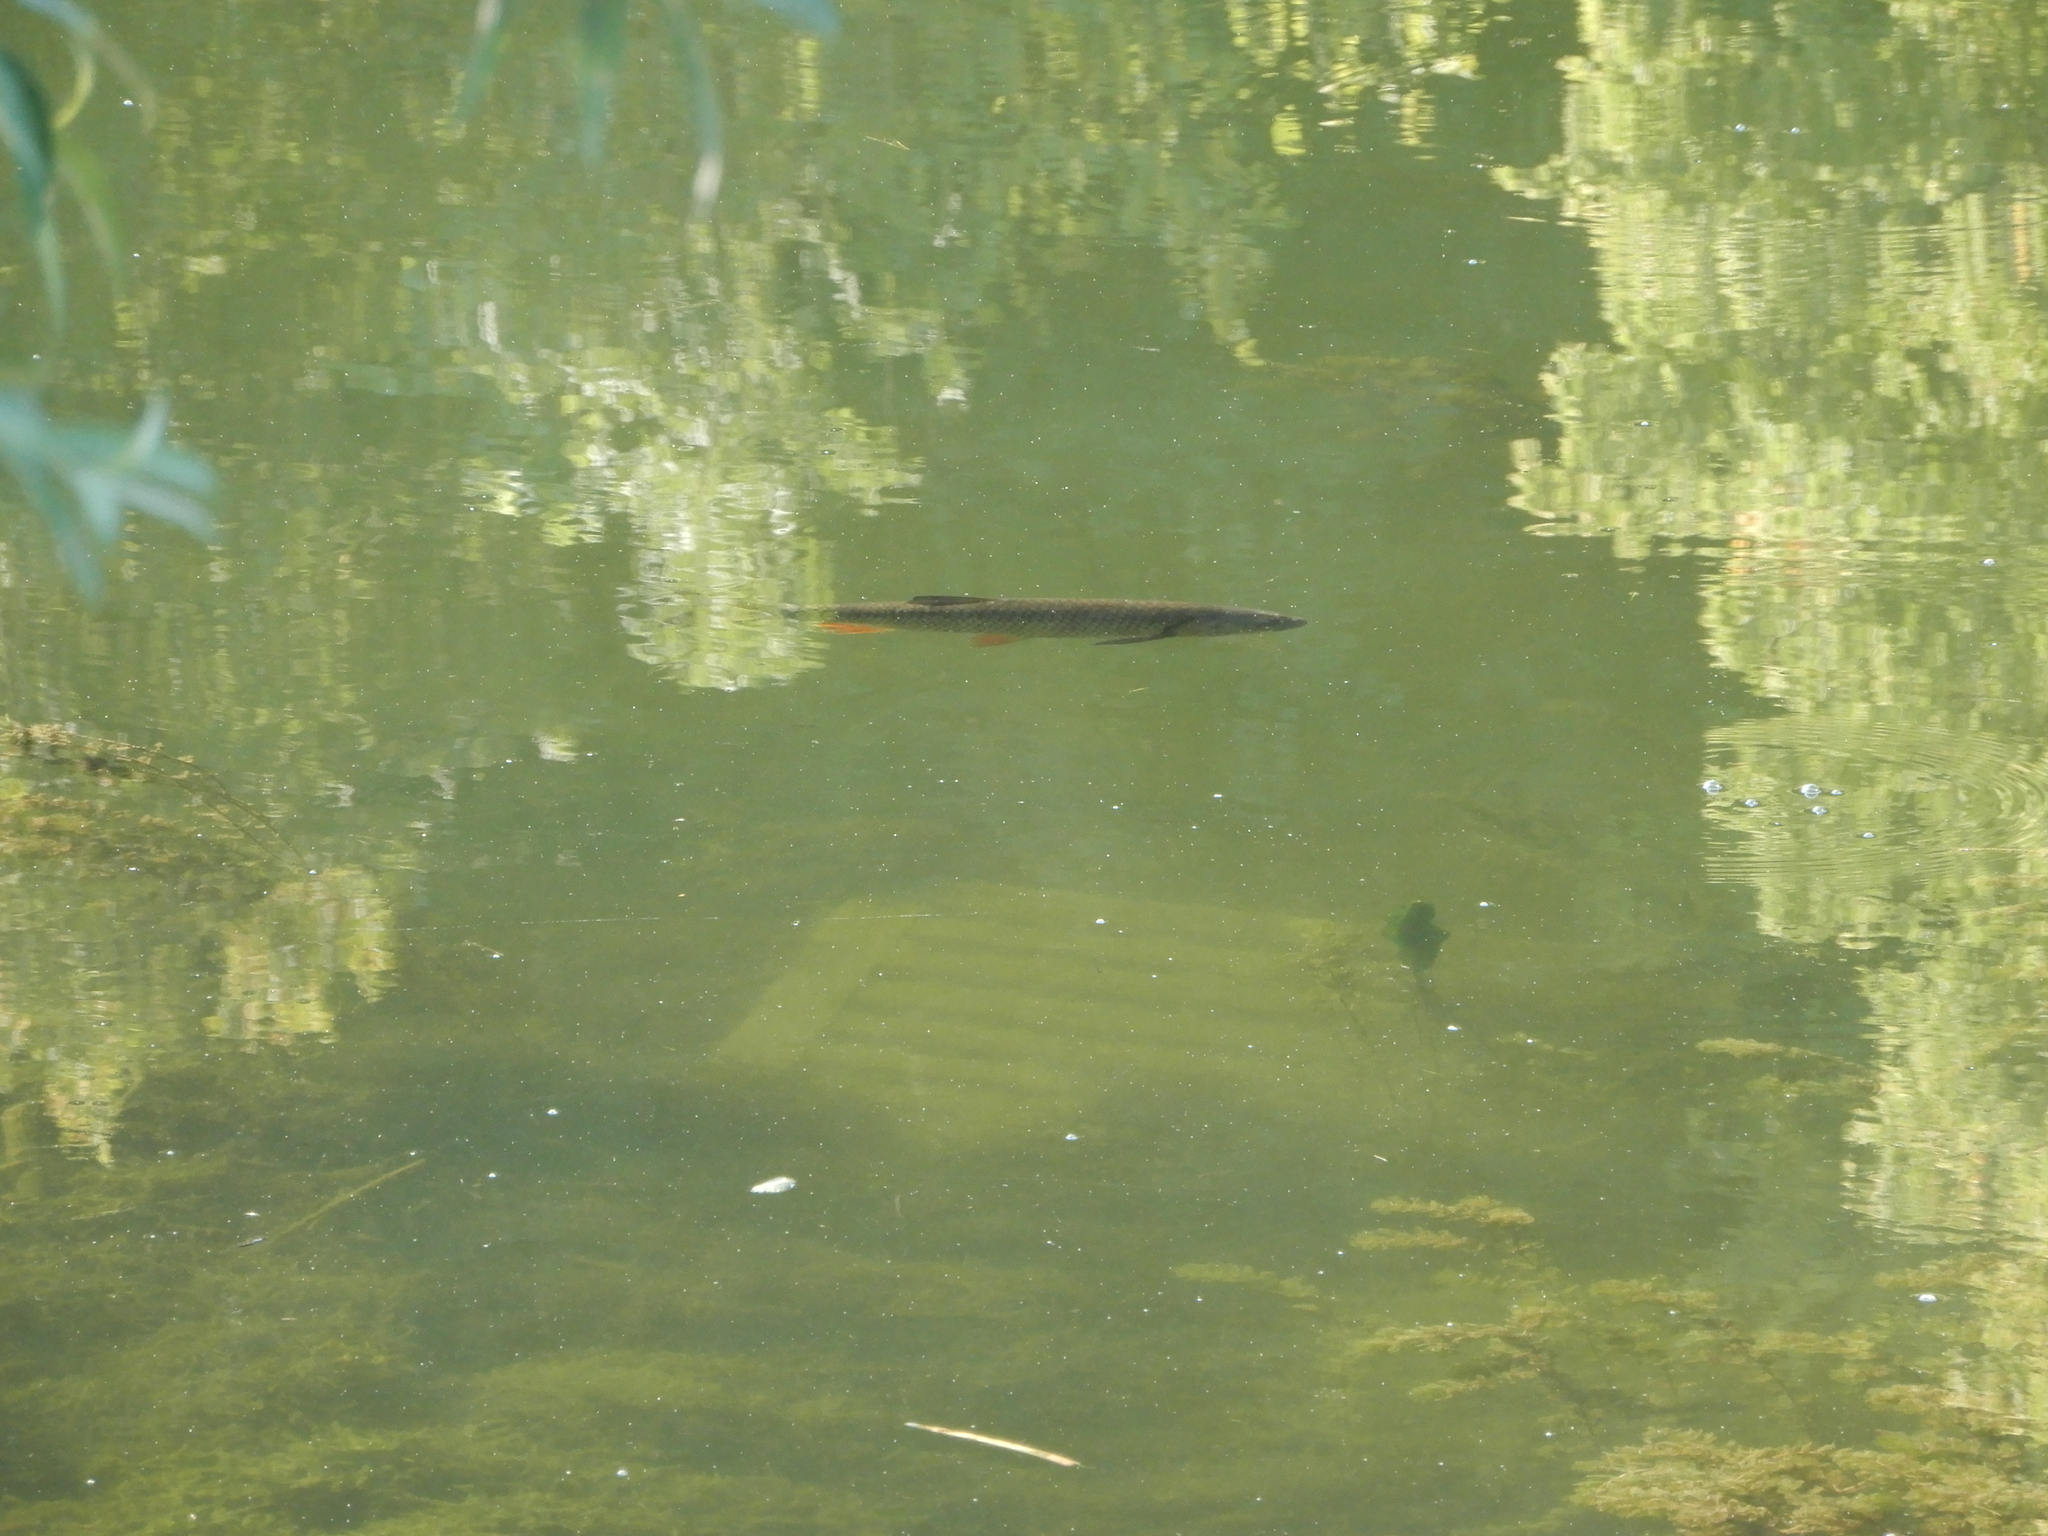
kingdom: Animalia
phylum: Chordata
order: Cypriniformes
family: Cyprinidae
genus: Squalius
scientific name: Squalius cephalus
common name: Chub
